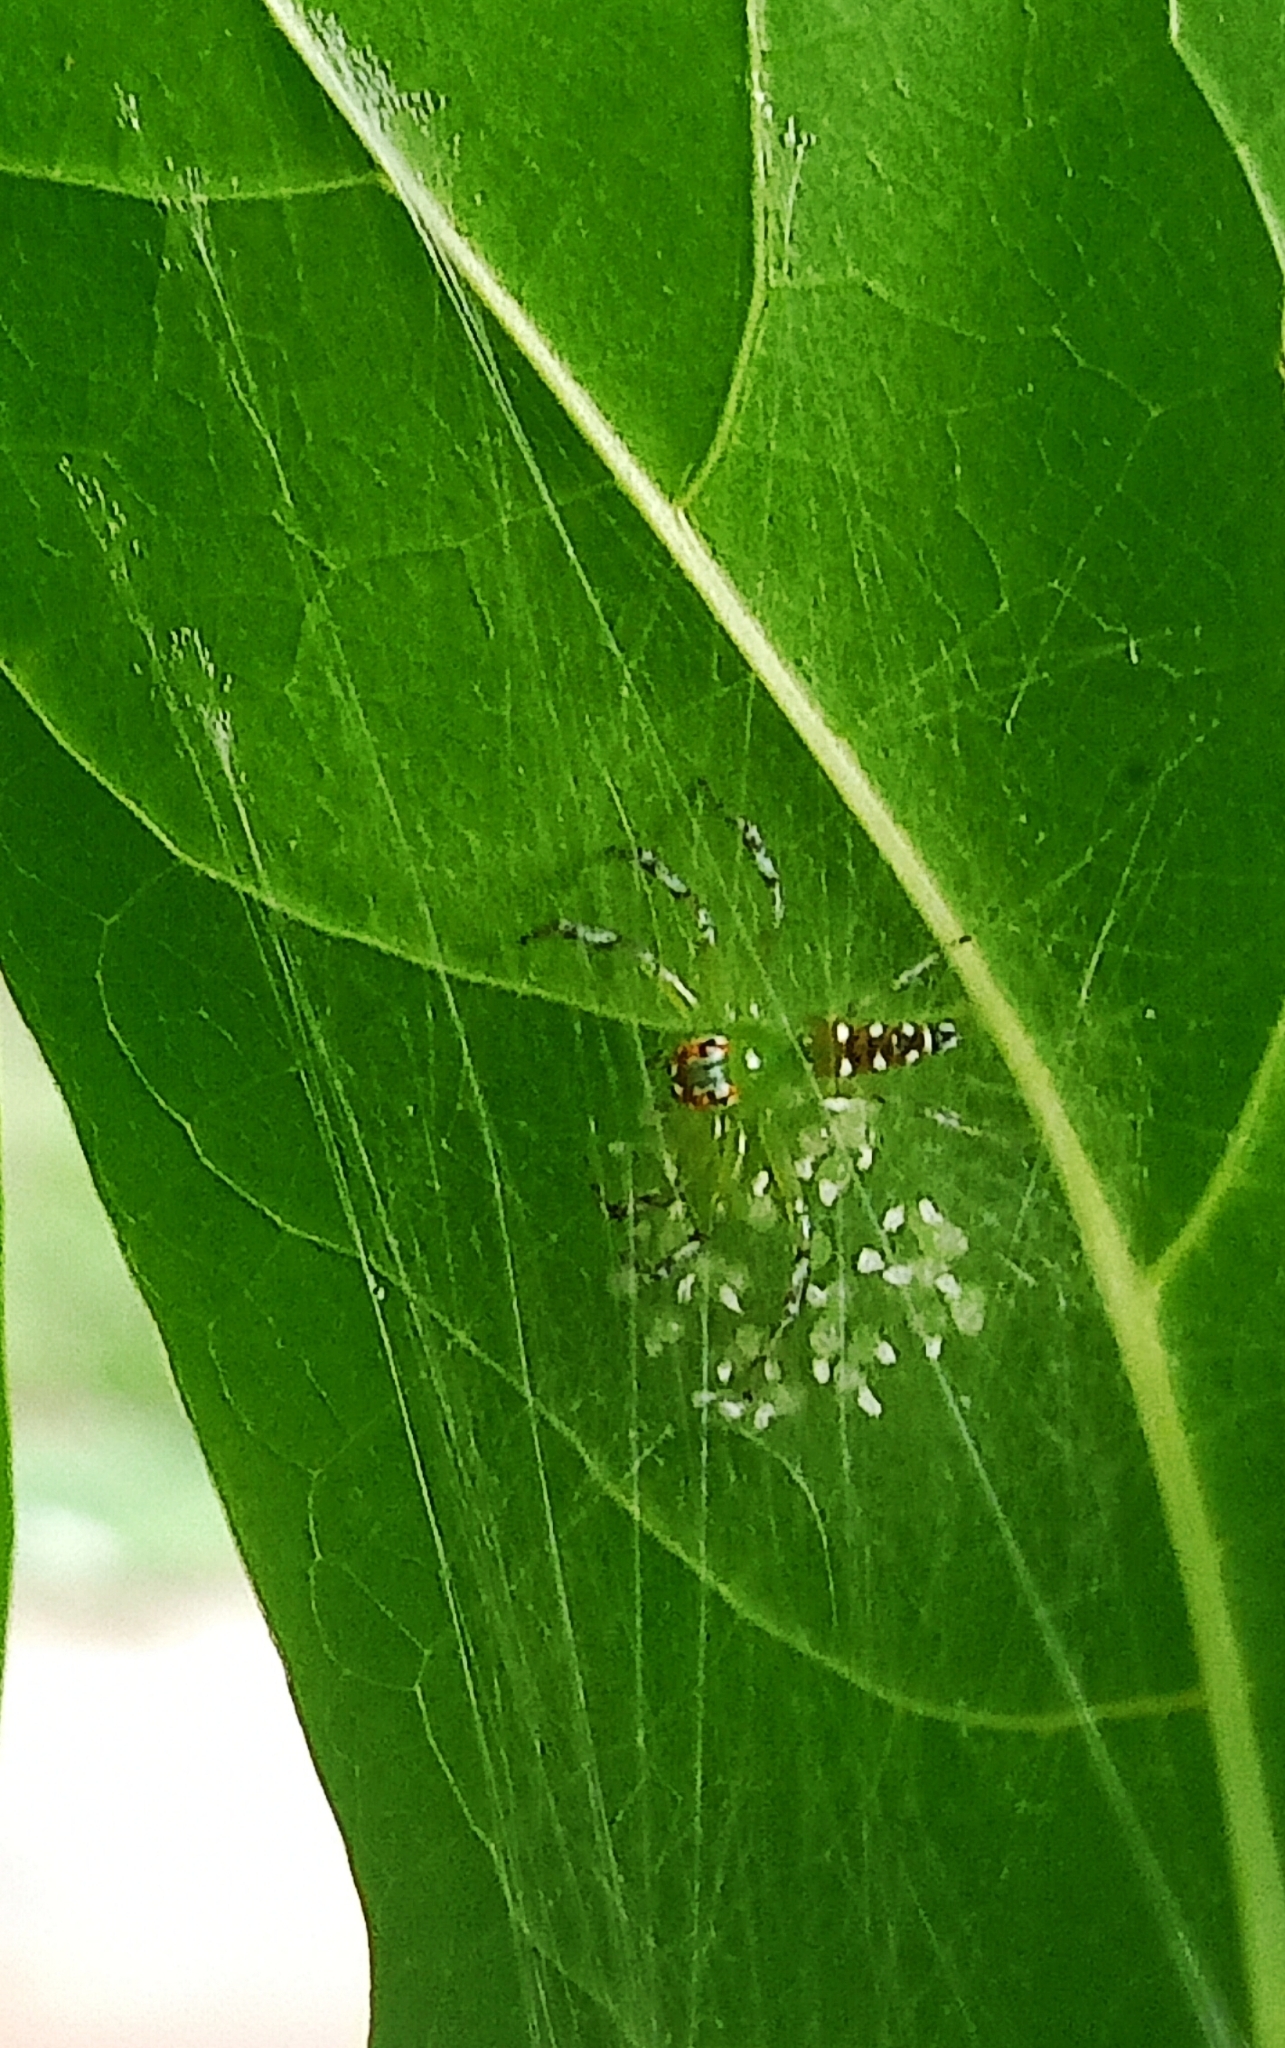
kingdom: Animalia
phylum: Arthropoda
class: Arachnida
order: Araneae
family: Salticidae
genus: Epeus
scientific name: Epeus indicus
